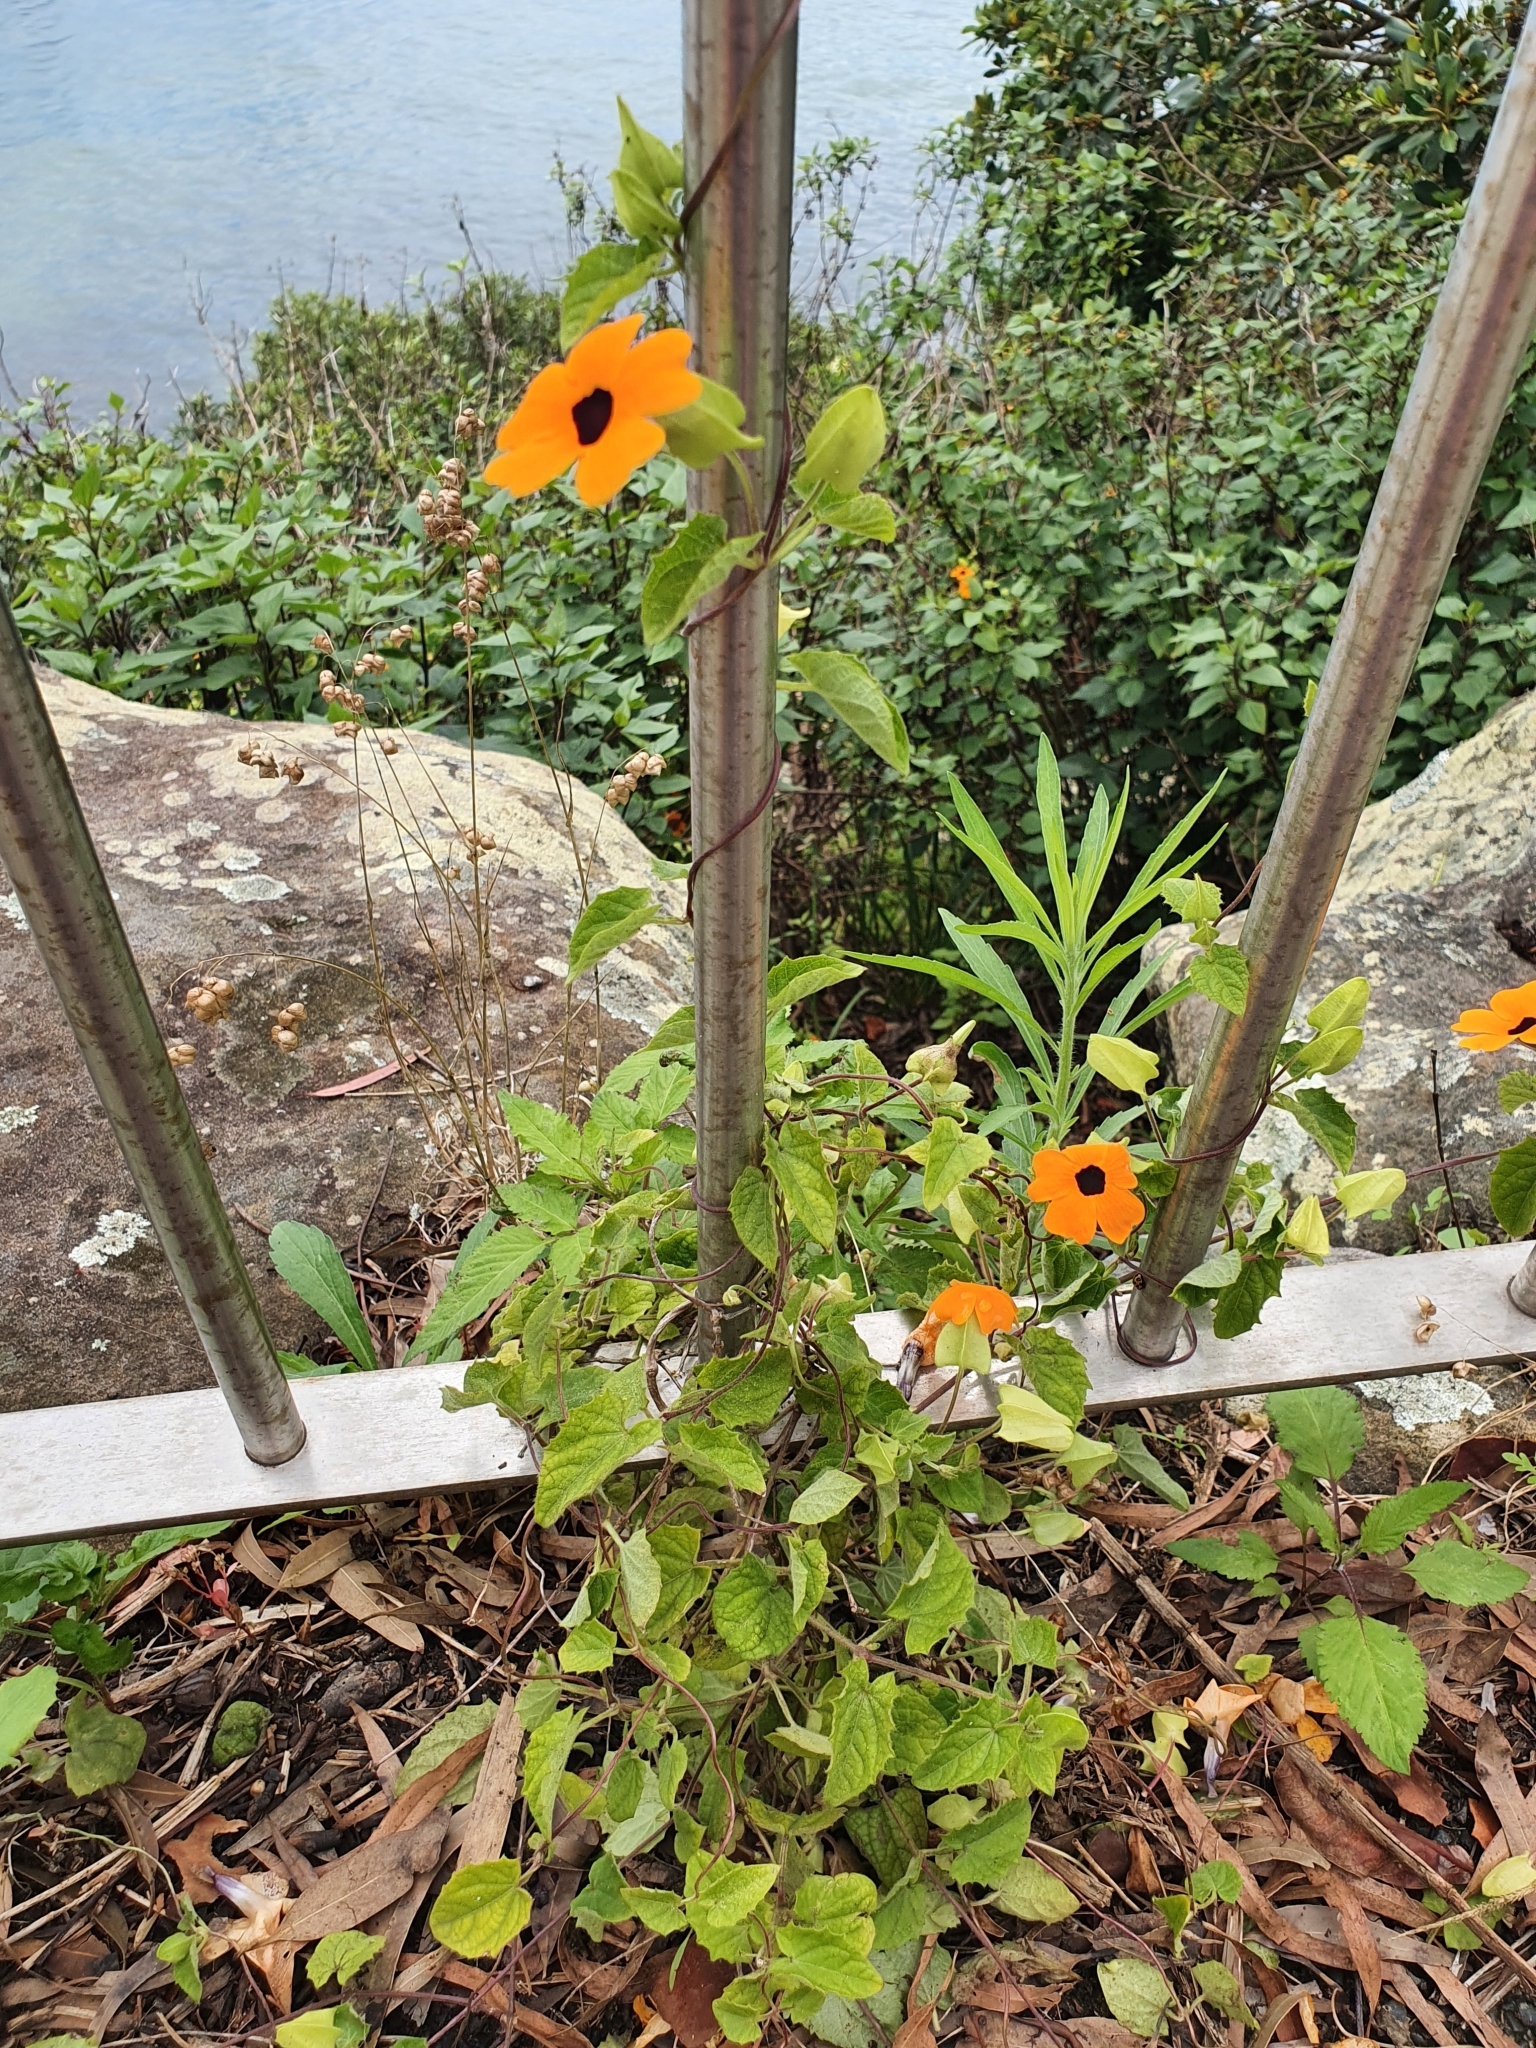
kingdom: Plantae
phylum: Tracheophyta
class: Magnoliopsida
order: Lamiales
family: Acanthaceae
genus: Thunbergia
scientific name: Thunbergia alata
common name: Blackeyed susan vine
